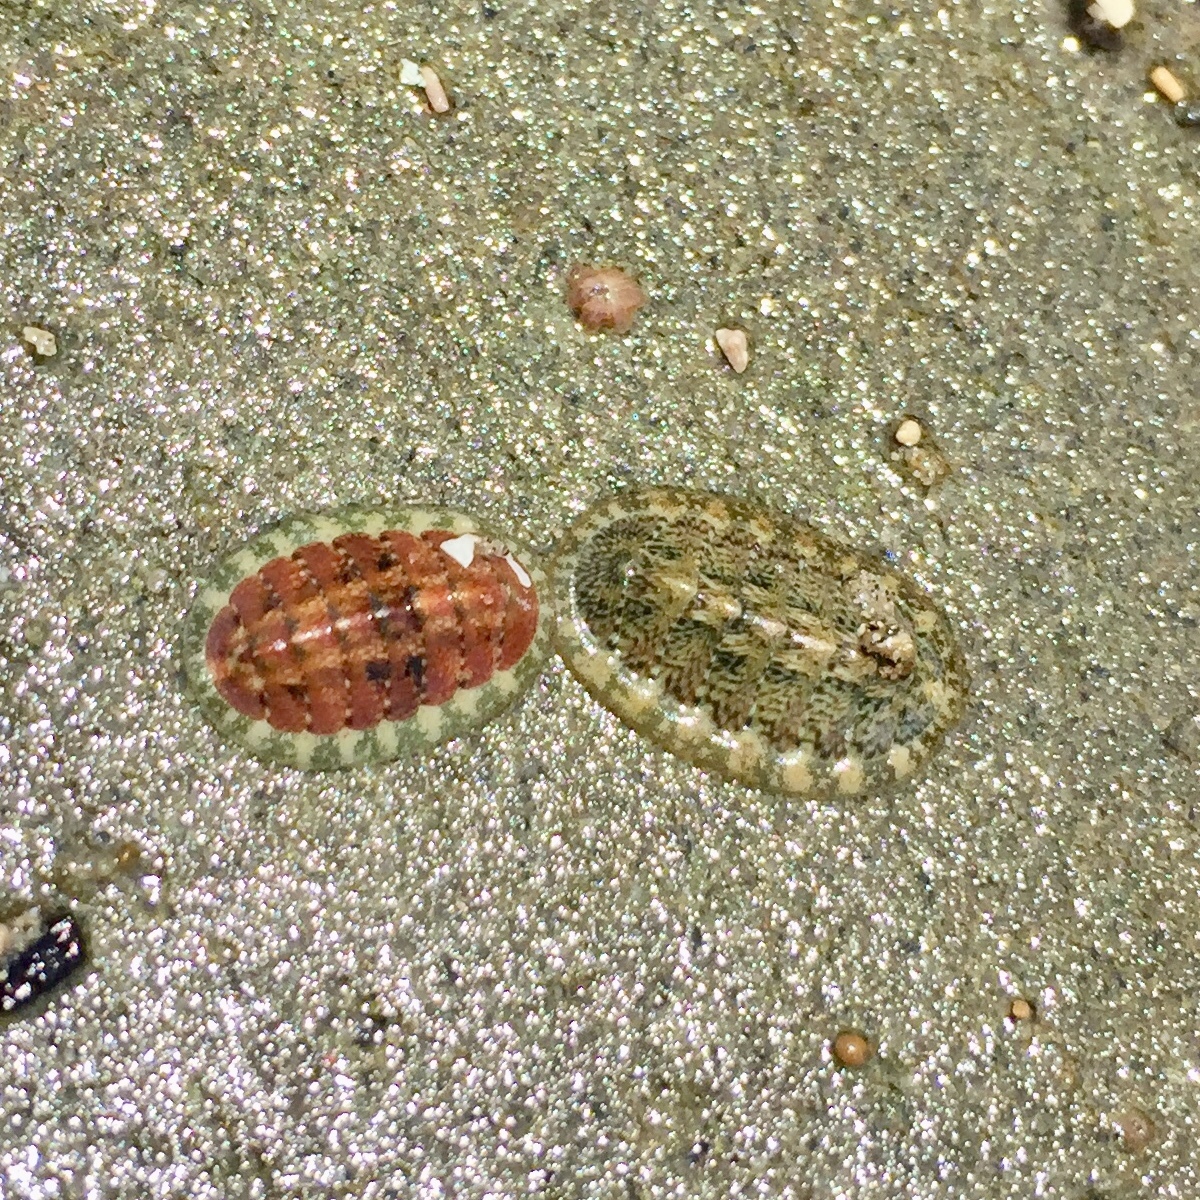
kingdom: Animalia
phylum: Mollusca
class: Polyplacophora
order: Chitonida
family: Tonicellidae
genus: Cyanoplax
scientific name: Cyanoplax keepiana
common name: Keep's chiton
